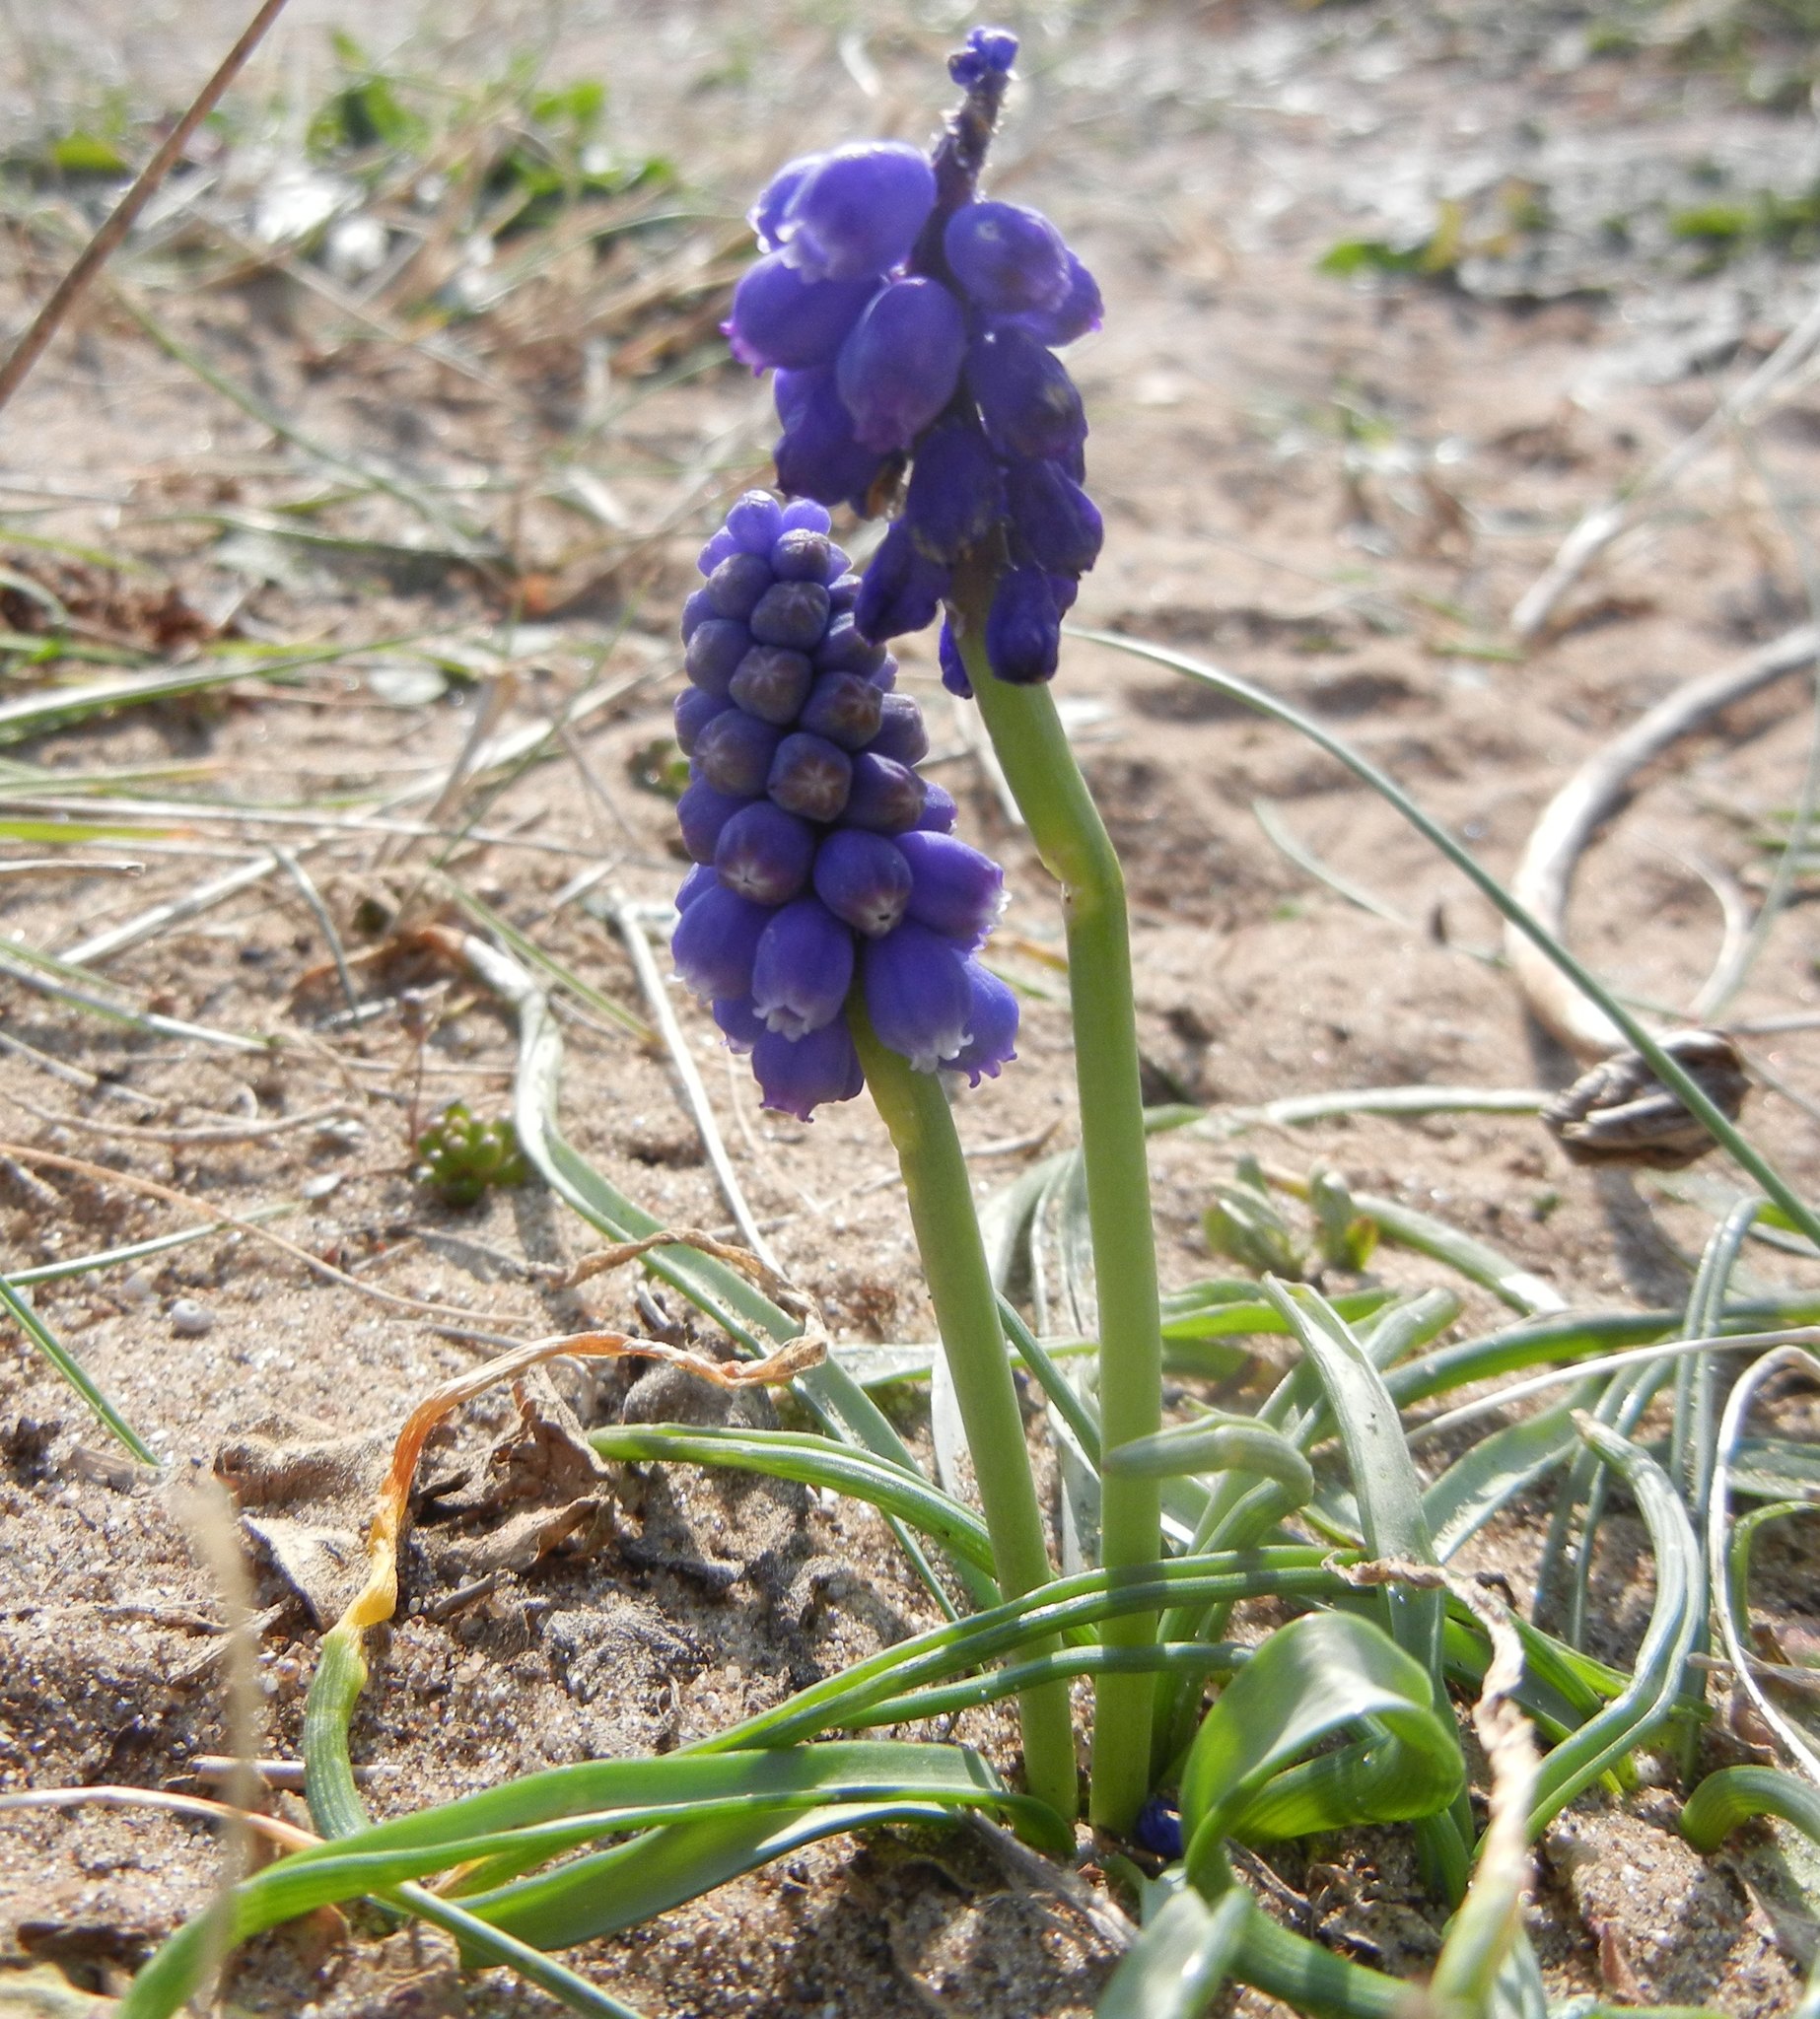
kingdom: Plantae
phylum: Tracheophyta
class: Liliopsida
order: Asparagales
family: Asparagaceae
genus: Muscari
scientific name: Muscari armeniacum
